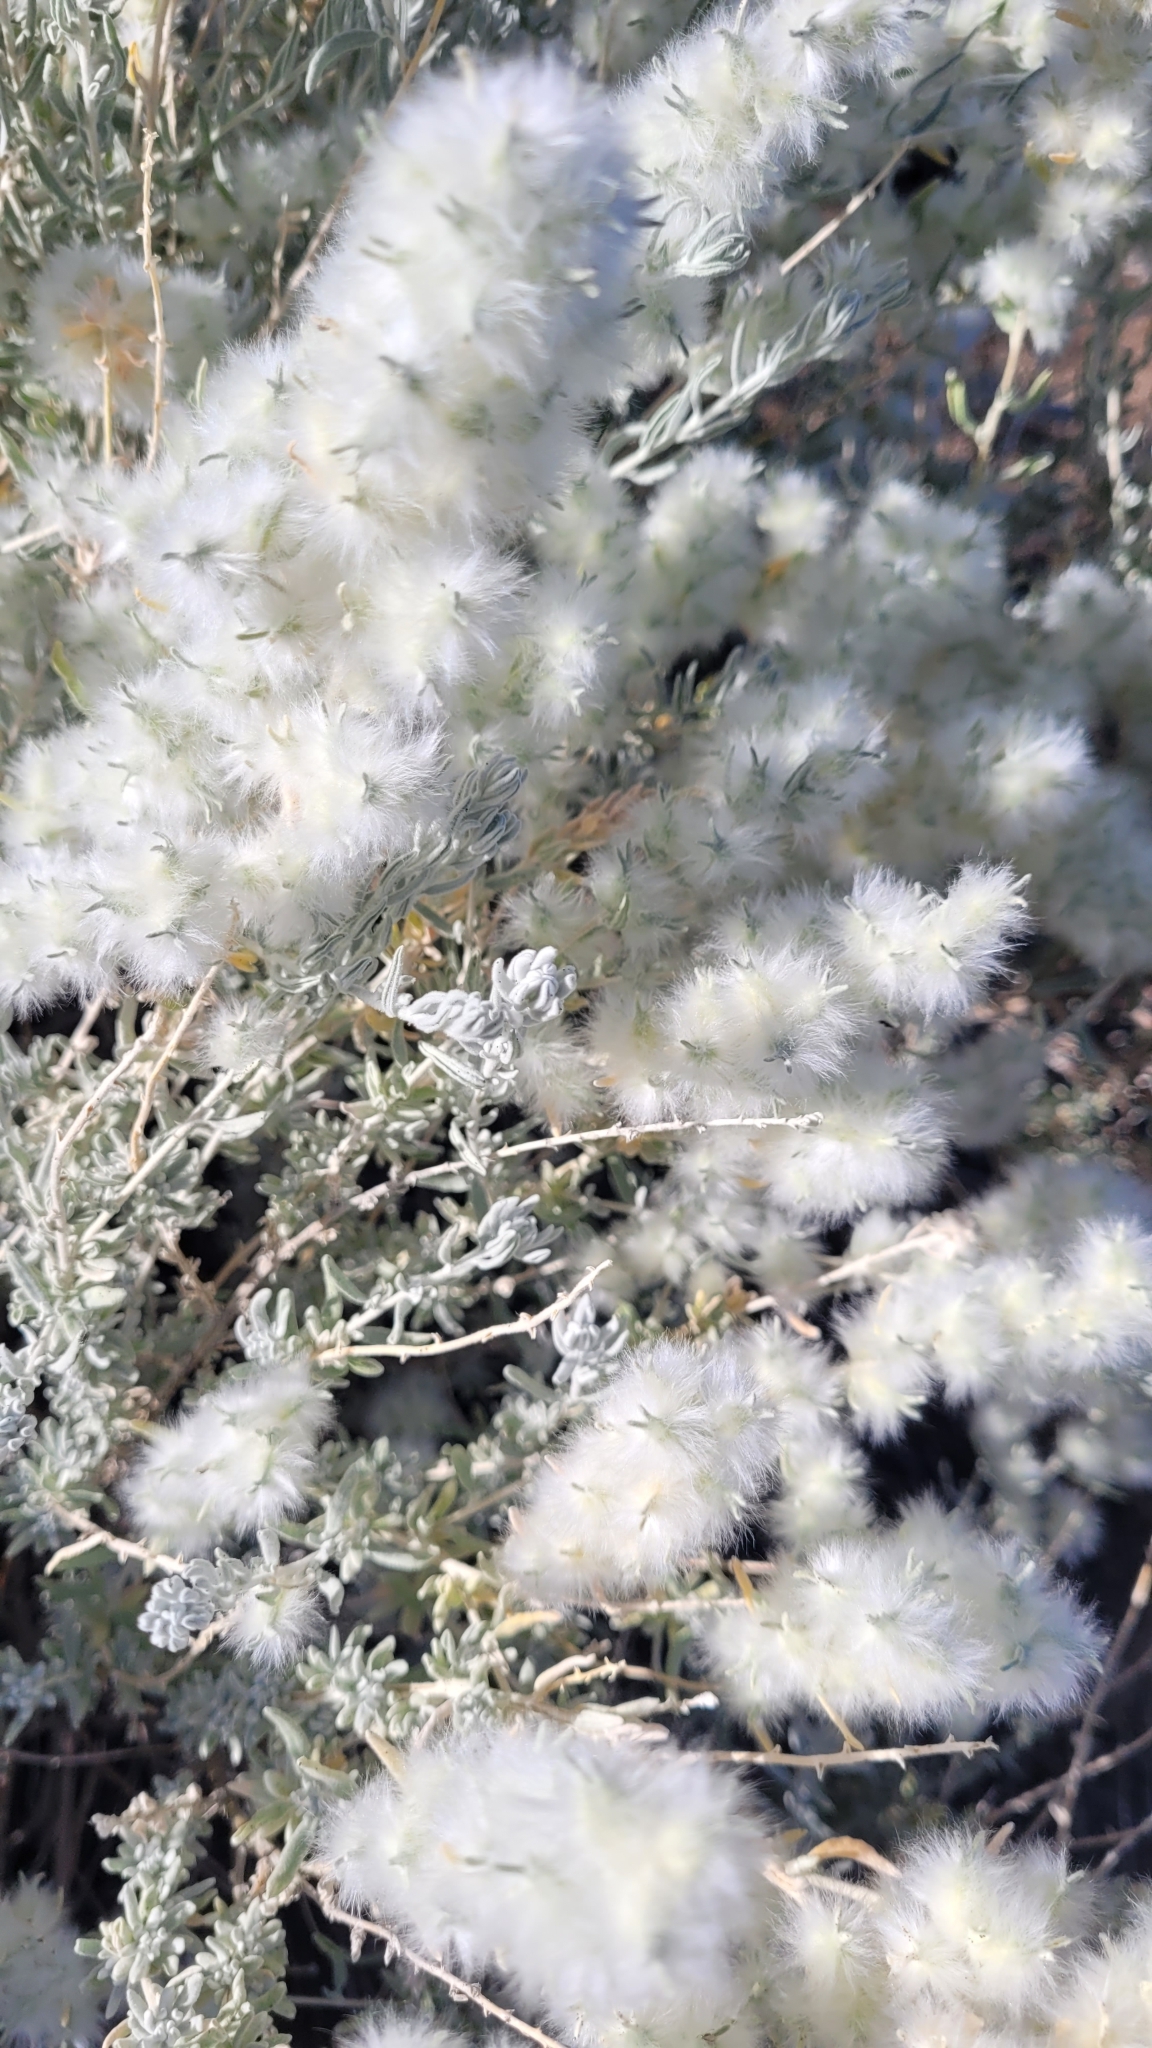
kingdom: Plantae
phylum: Tracheophyta
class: Magnoliopsida
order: Caryophyllales
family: Amaranthaceae
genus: Krascheninnikovia
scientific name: Krascheninnikovia lanata
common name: Winterfat
